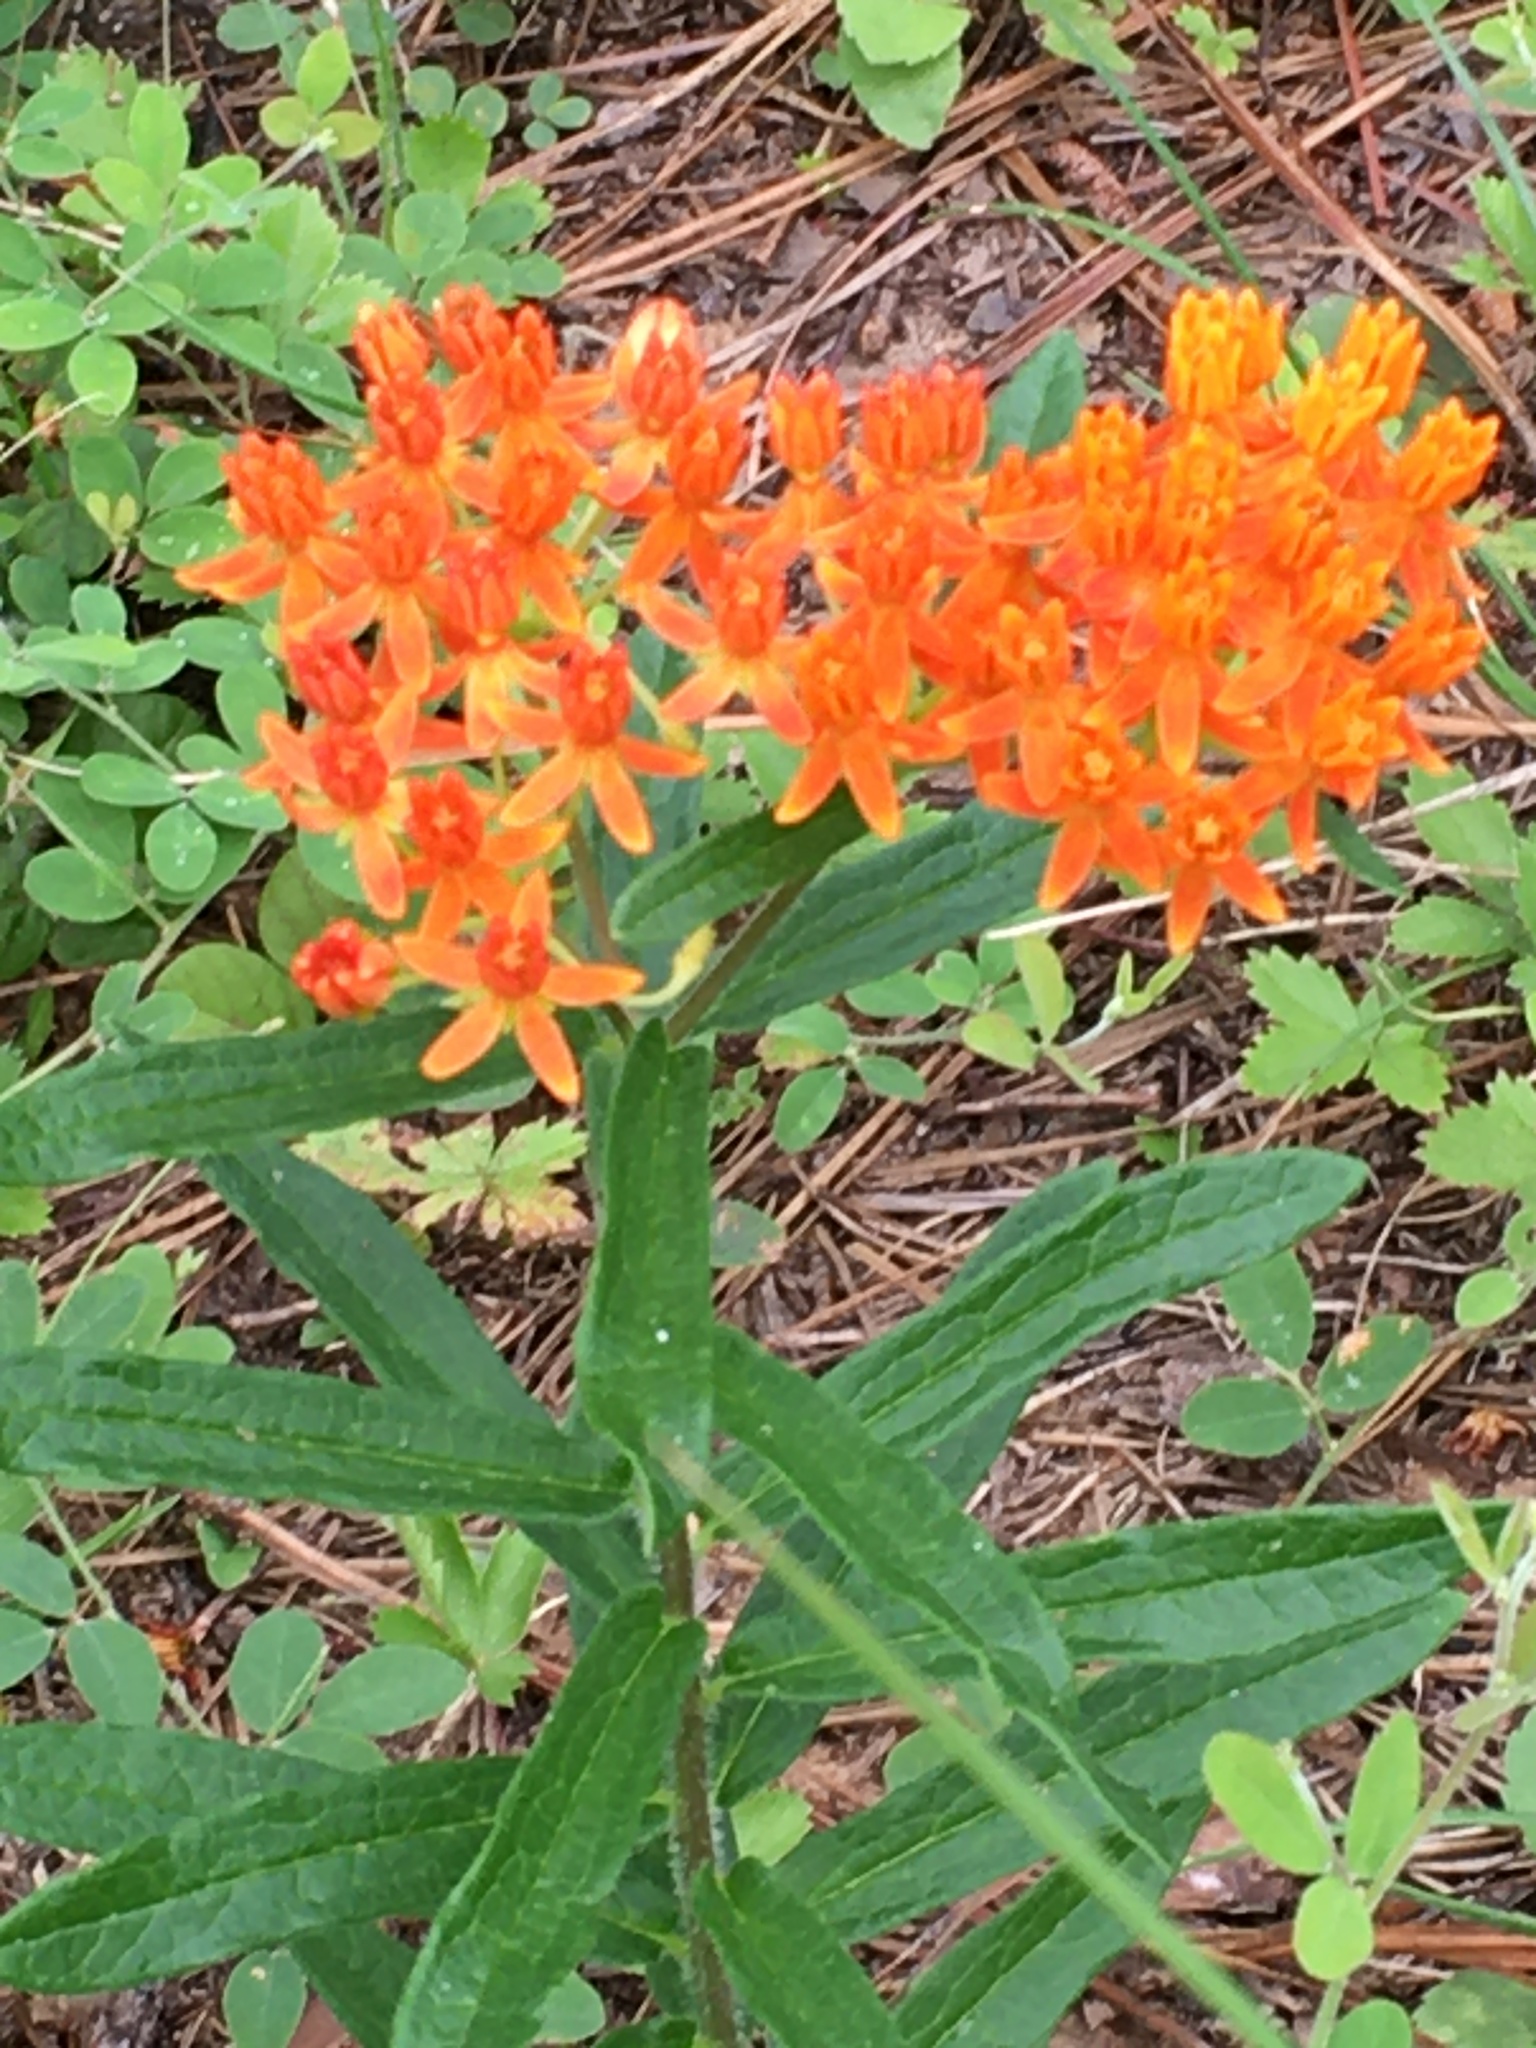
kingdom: Plantae
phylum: Tracheophyta
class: Magnoliopsida
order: Gentianales
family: Apocynaceae
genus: Asclepias
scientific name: Asclepias tuberosa
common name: Butterfly milkweed
